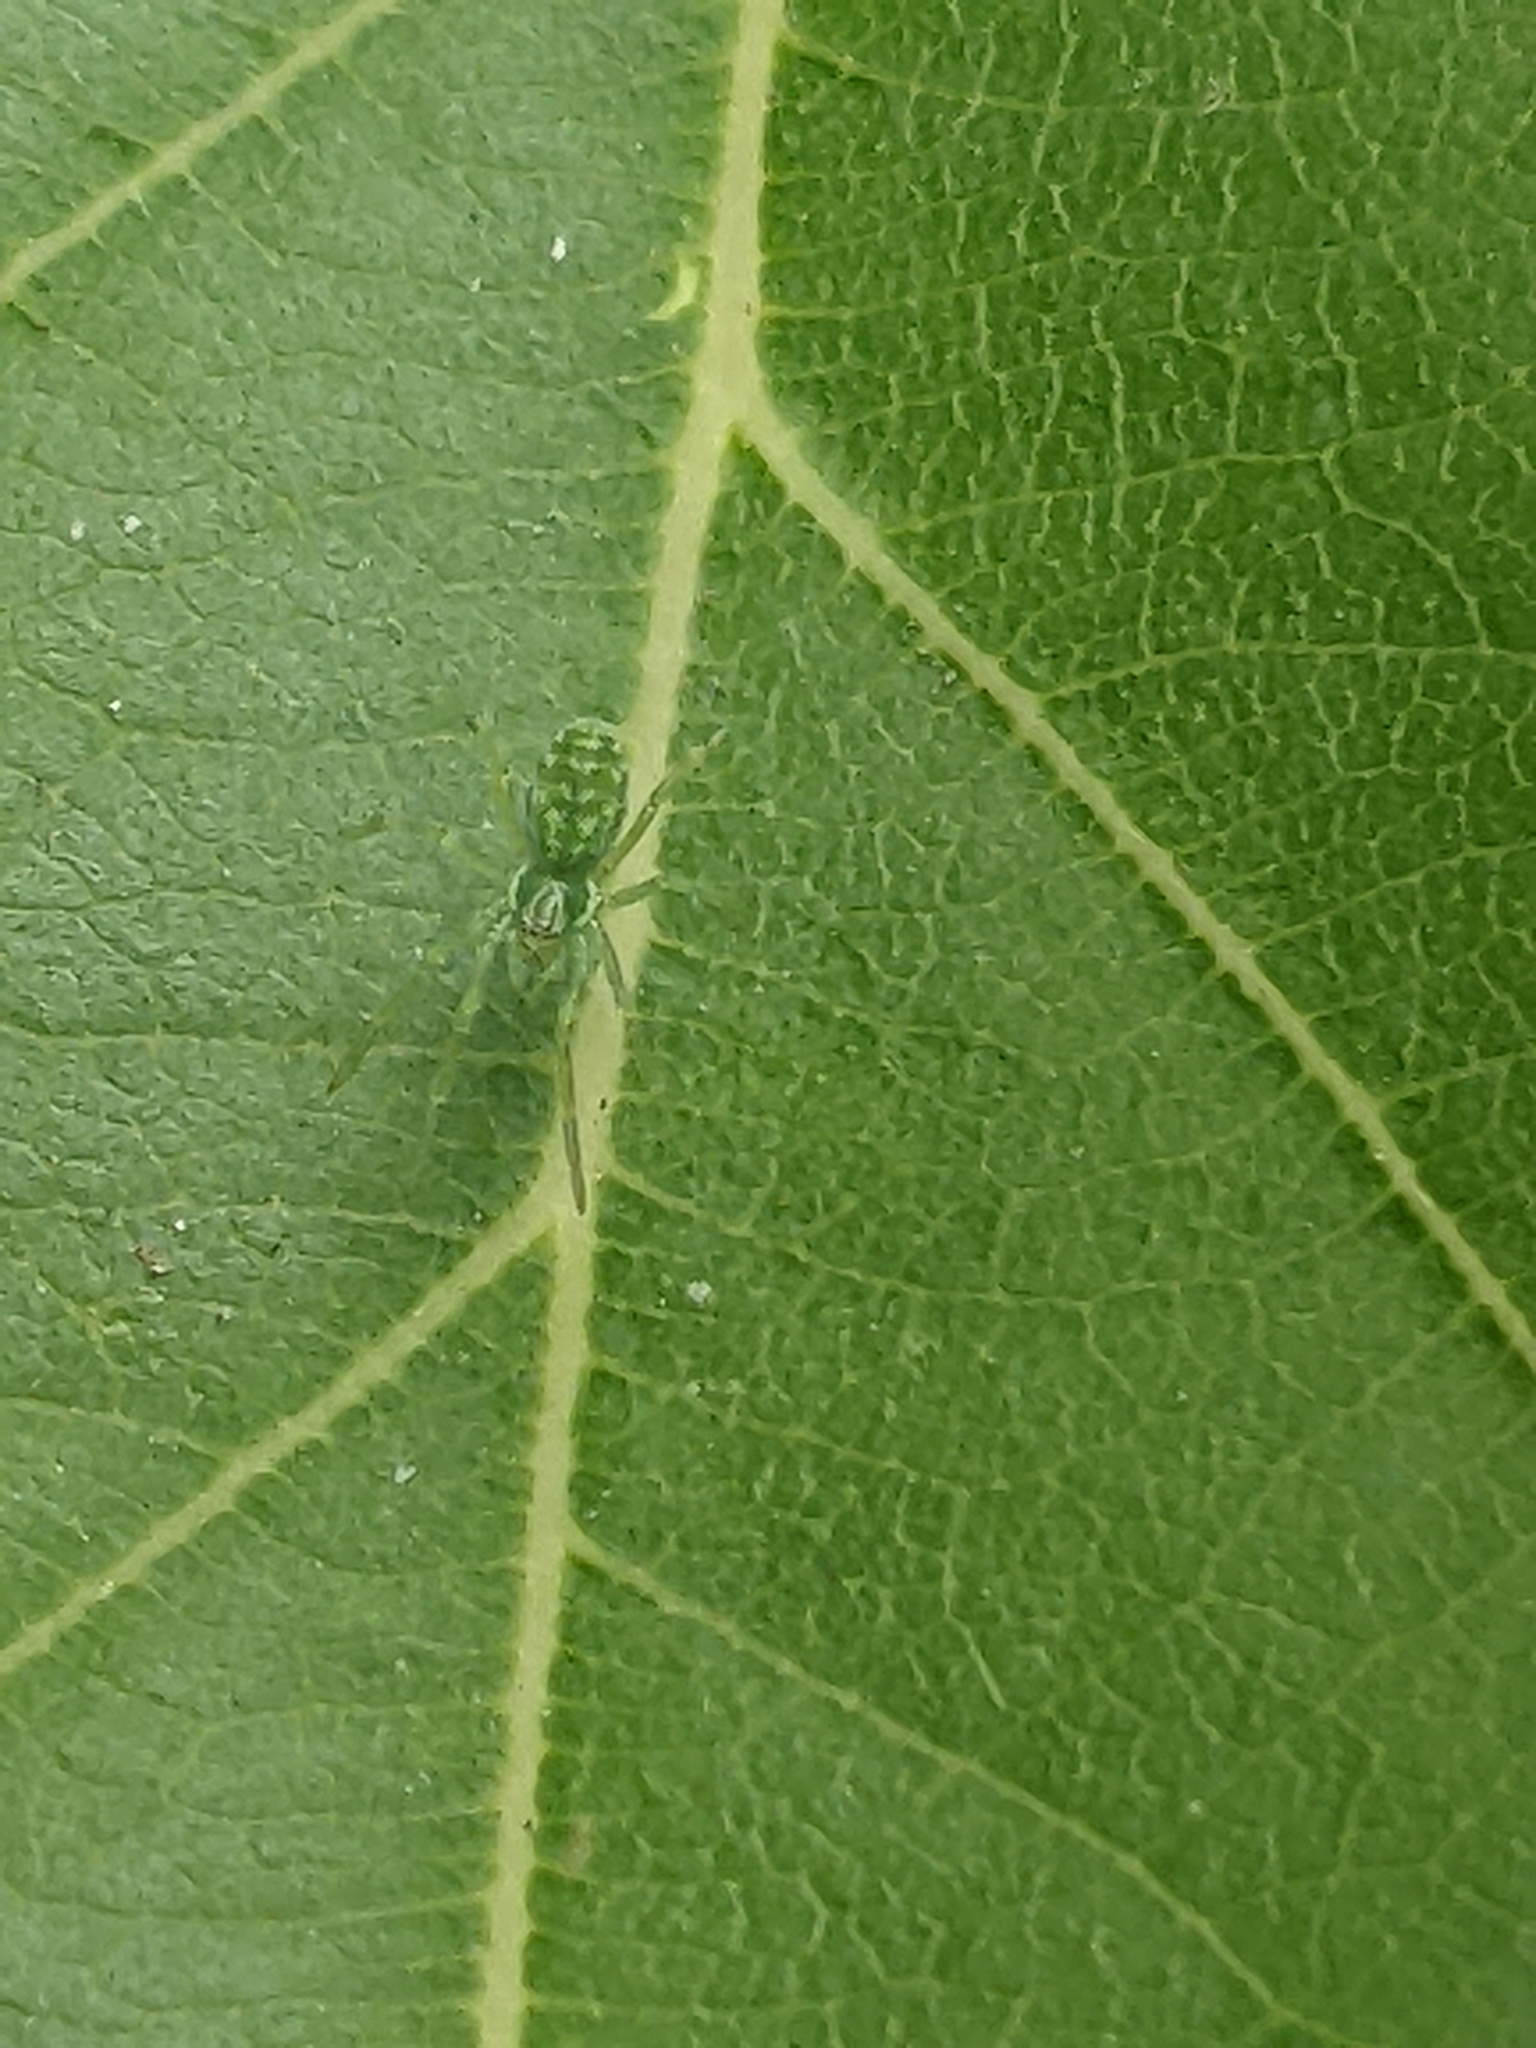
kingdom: Animalia
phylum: Arthropoda
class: Arachnida
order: Araneae
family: Dictynidae
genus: Nigma
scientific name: Nigma walckenaeri
